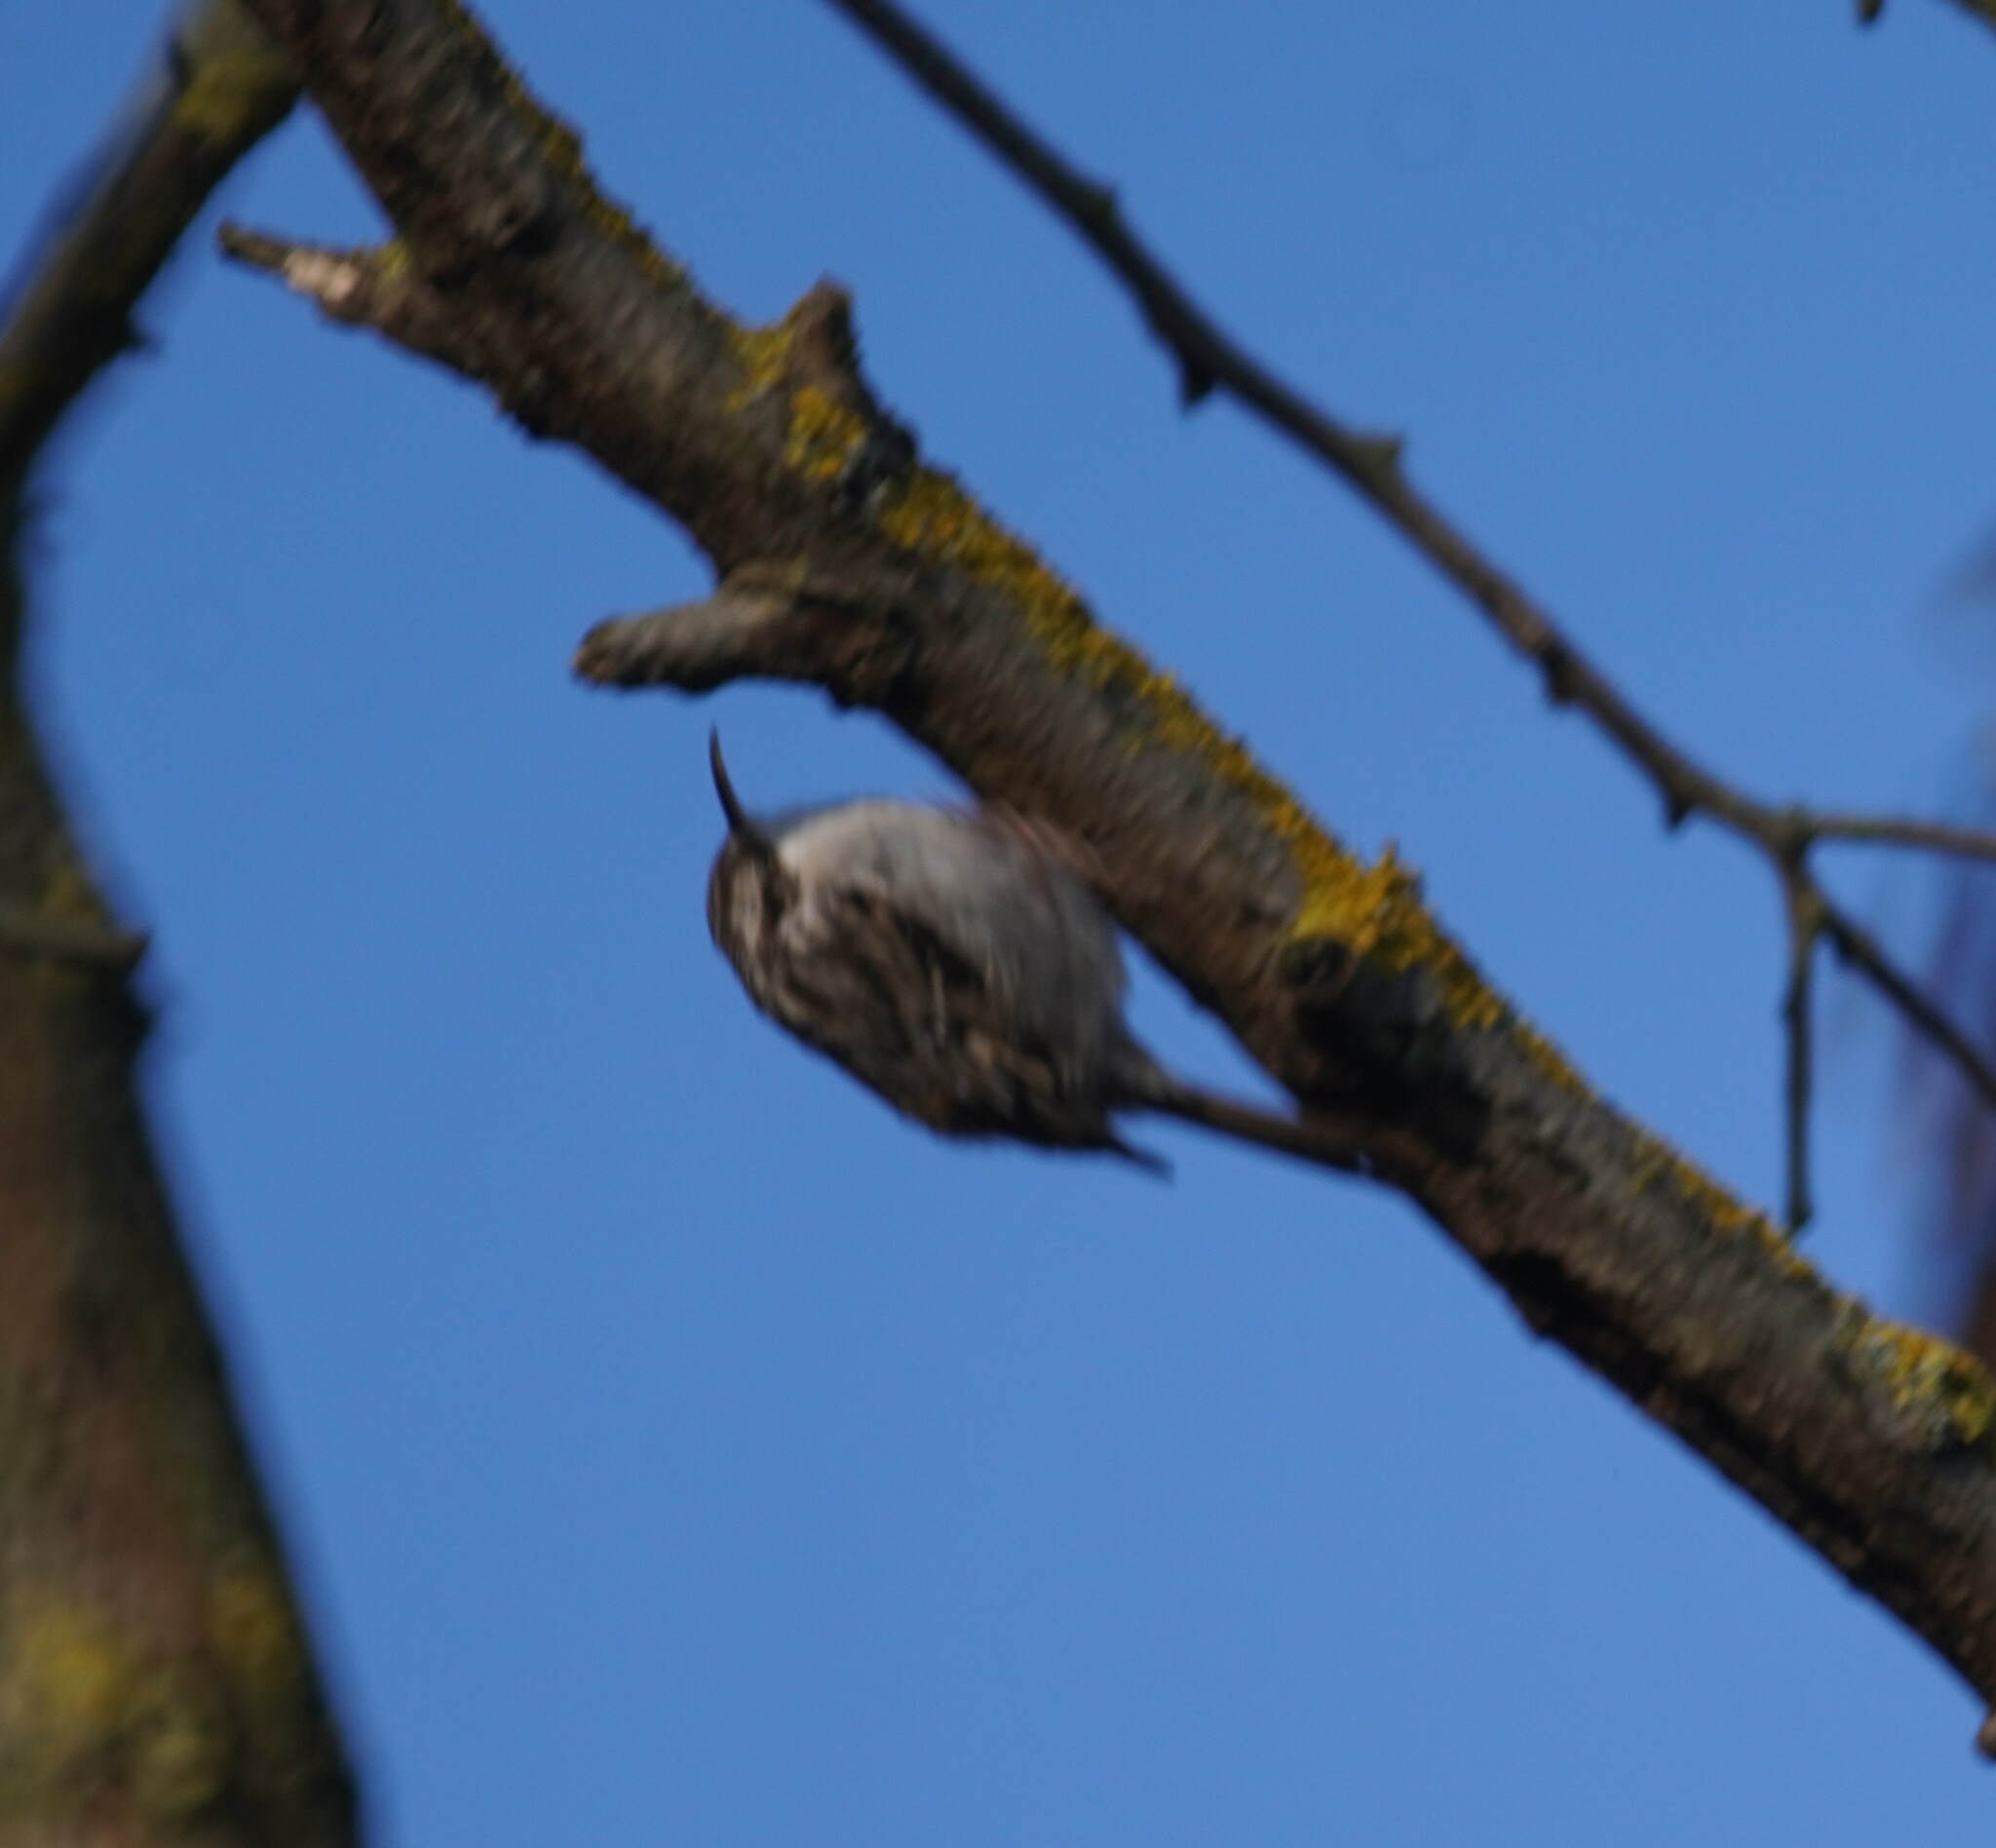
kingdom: Animalia
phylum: Chordata
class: Aves
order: Passeriformes
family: Certhiidae
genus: Certhia
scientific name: Certhia brachydactyla
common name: Short-toed treecreeper
